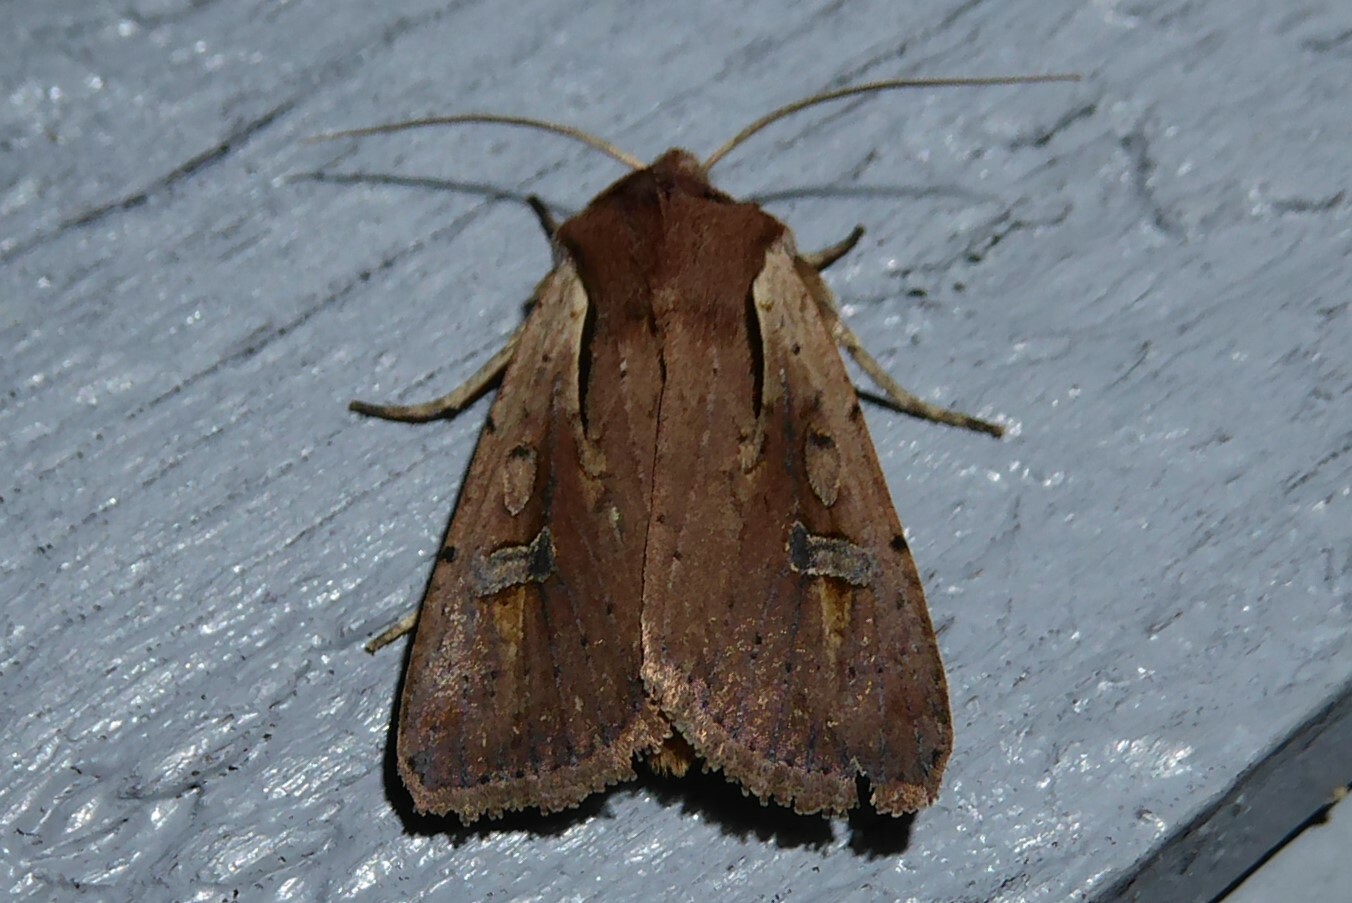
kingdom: Animalia
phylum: Arthropoda
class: Insecta
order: Lepidoptera
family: Noctuidae
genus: Ichneutica
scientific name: Ichneutica atristriga
